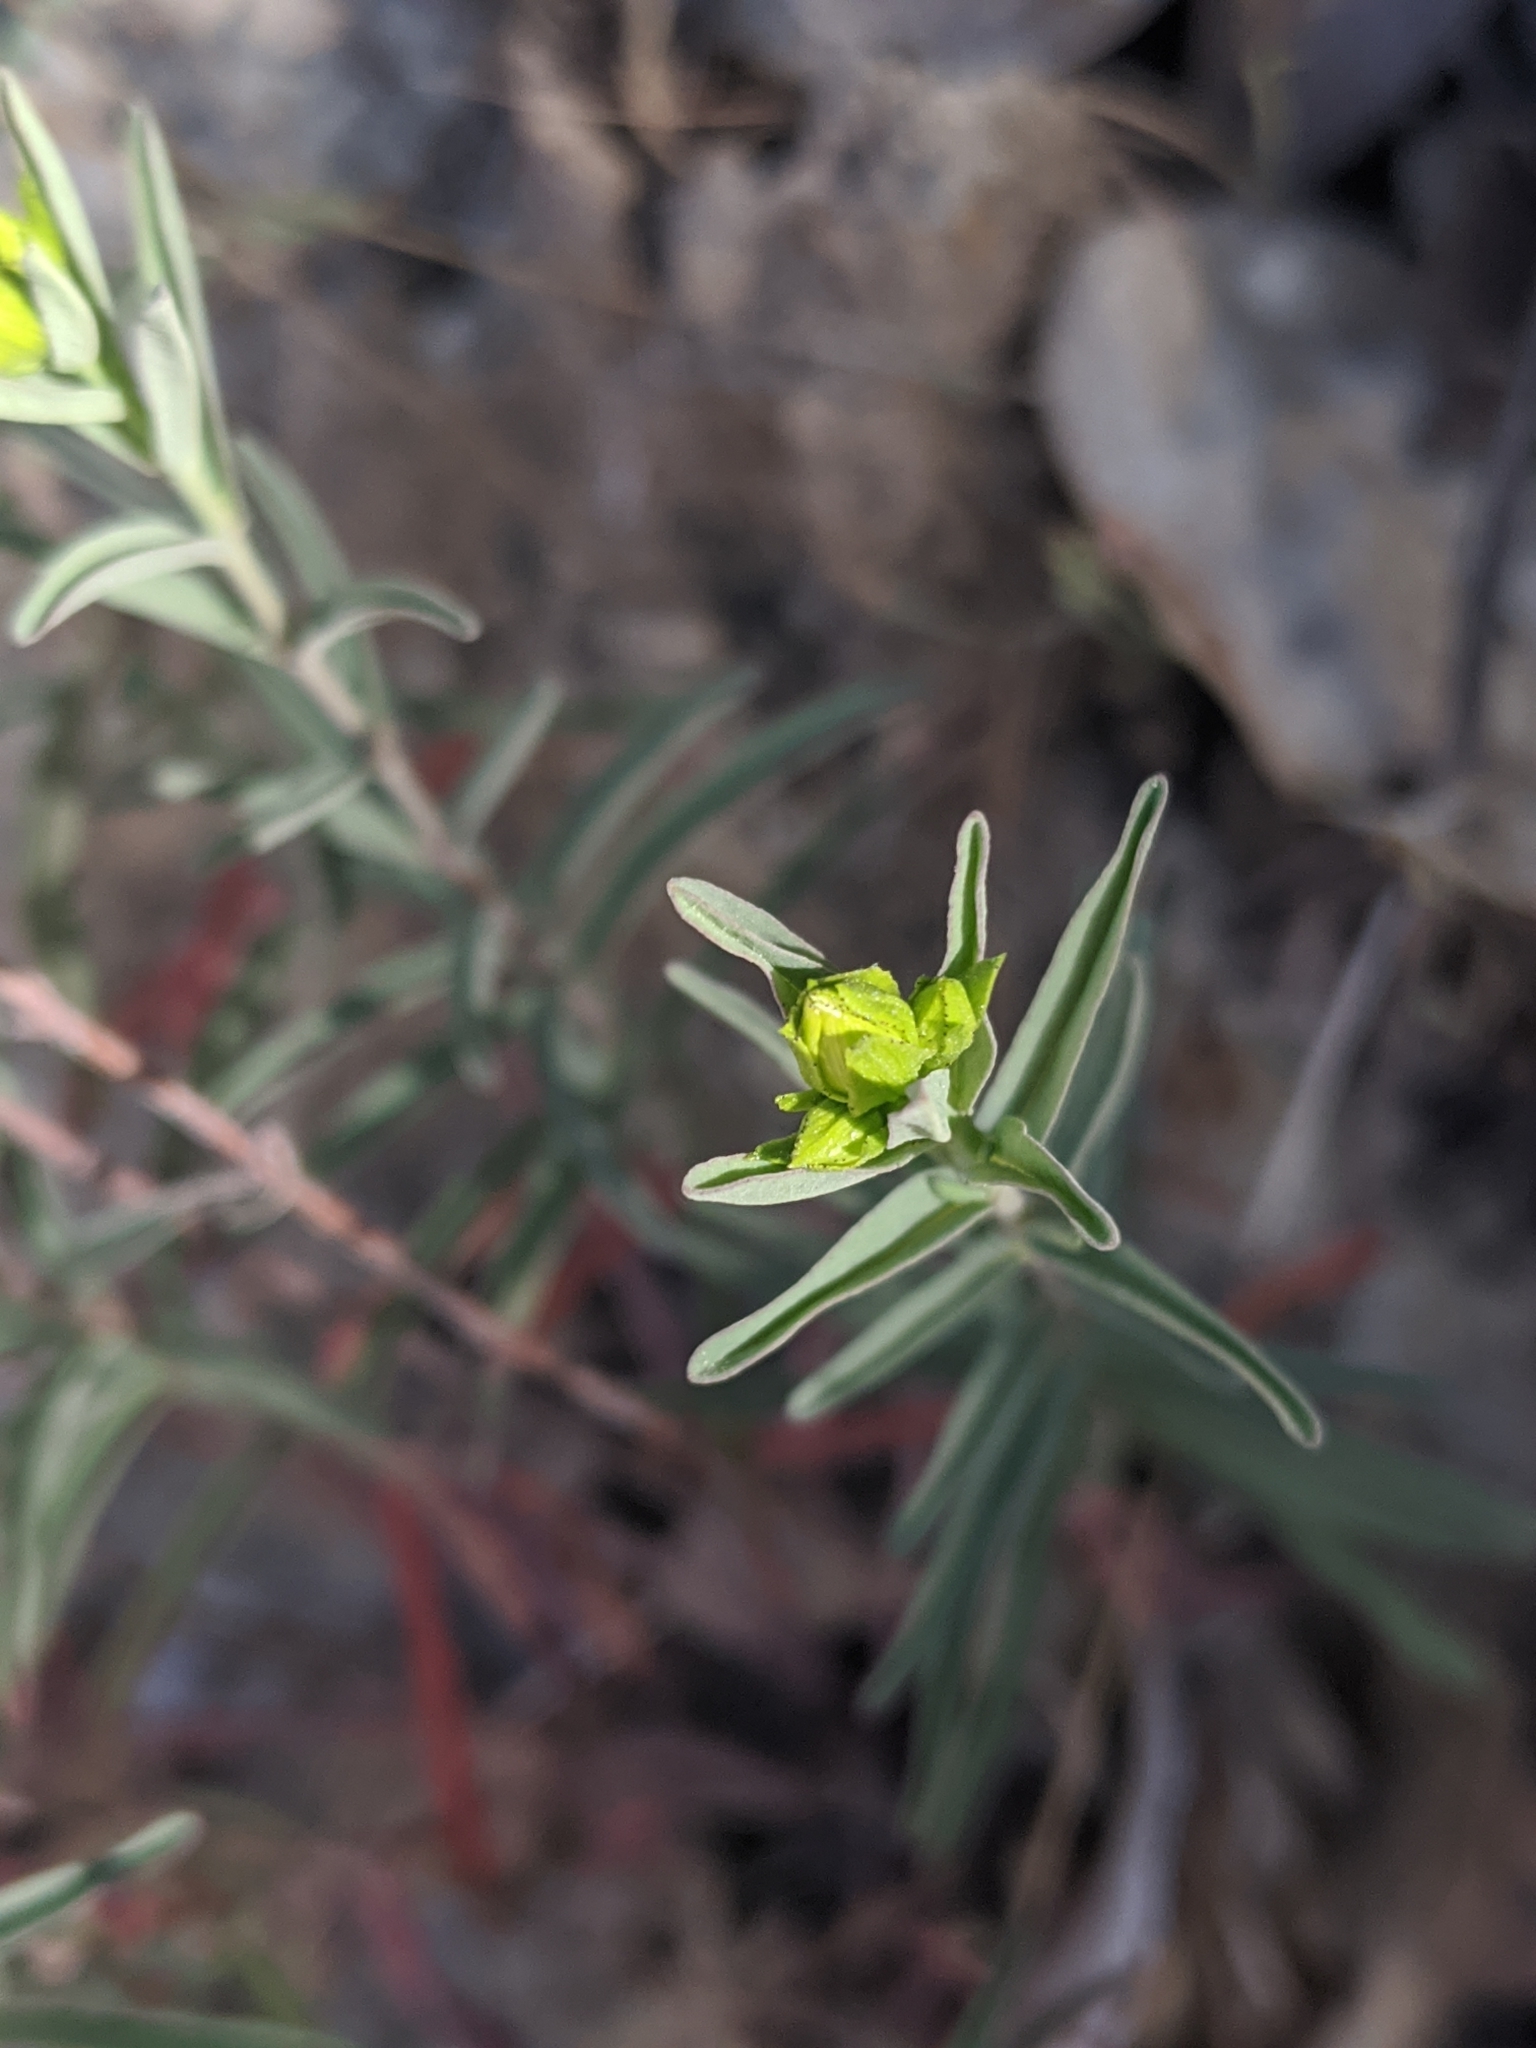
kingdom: Plantae
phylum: Tracheophyta
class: Magnoliopsida
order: Malpighiales
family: Hypericaceae
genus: Hypericum
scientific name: Hypericum concinnum
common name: Gold-wire
